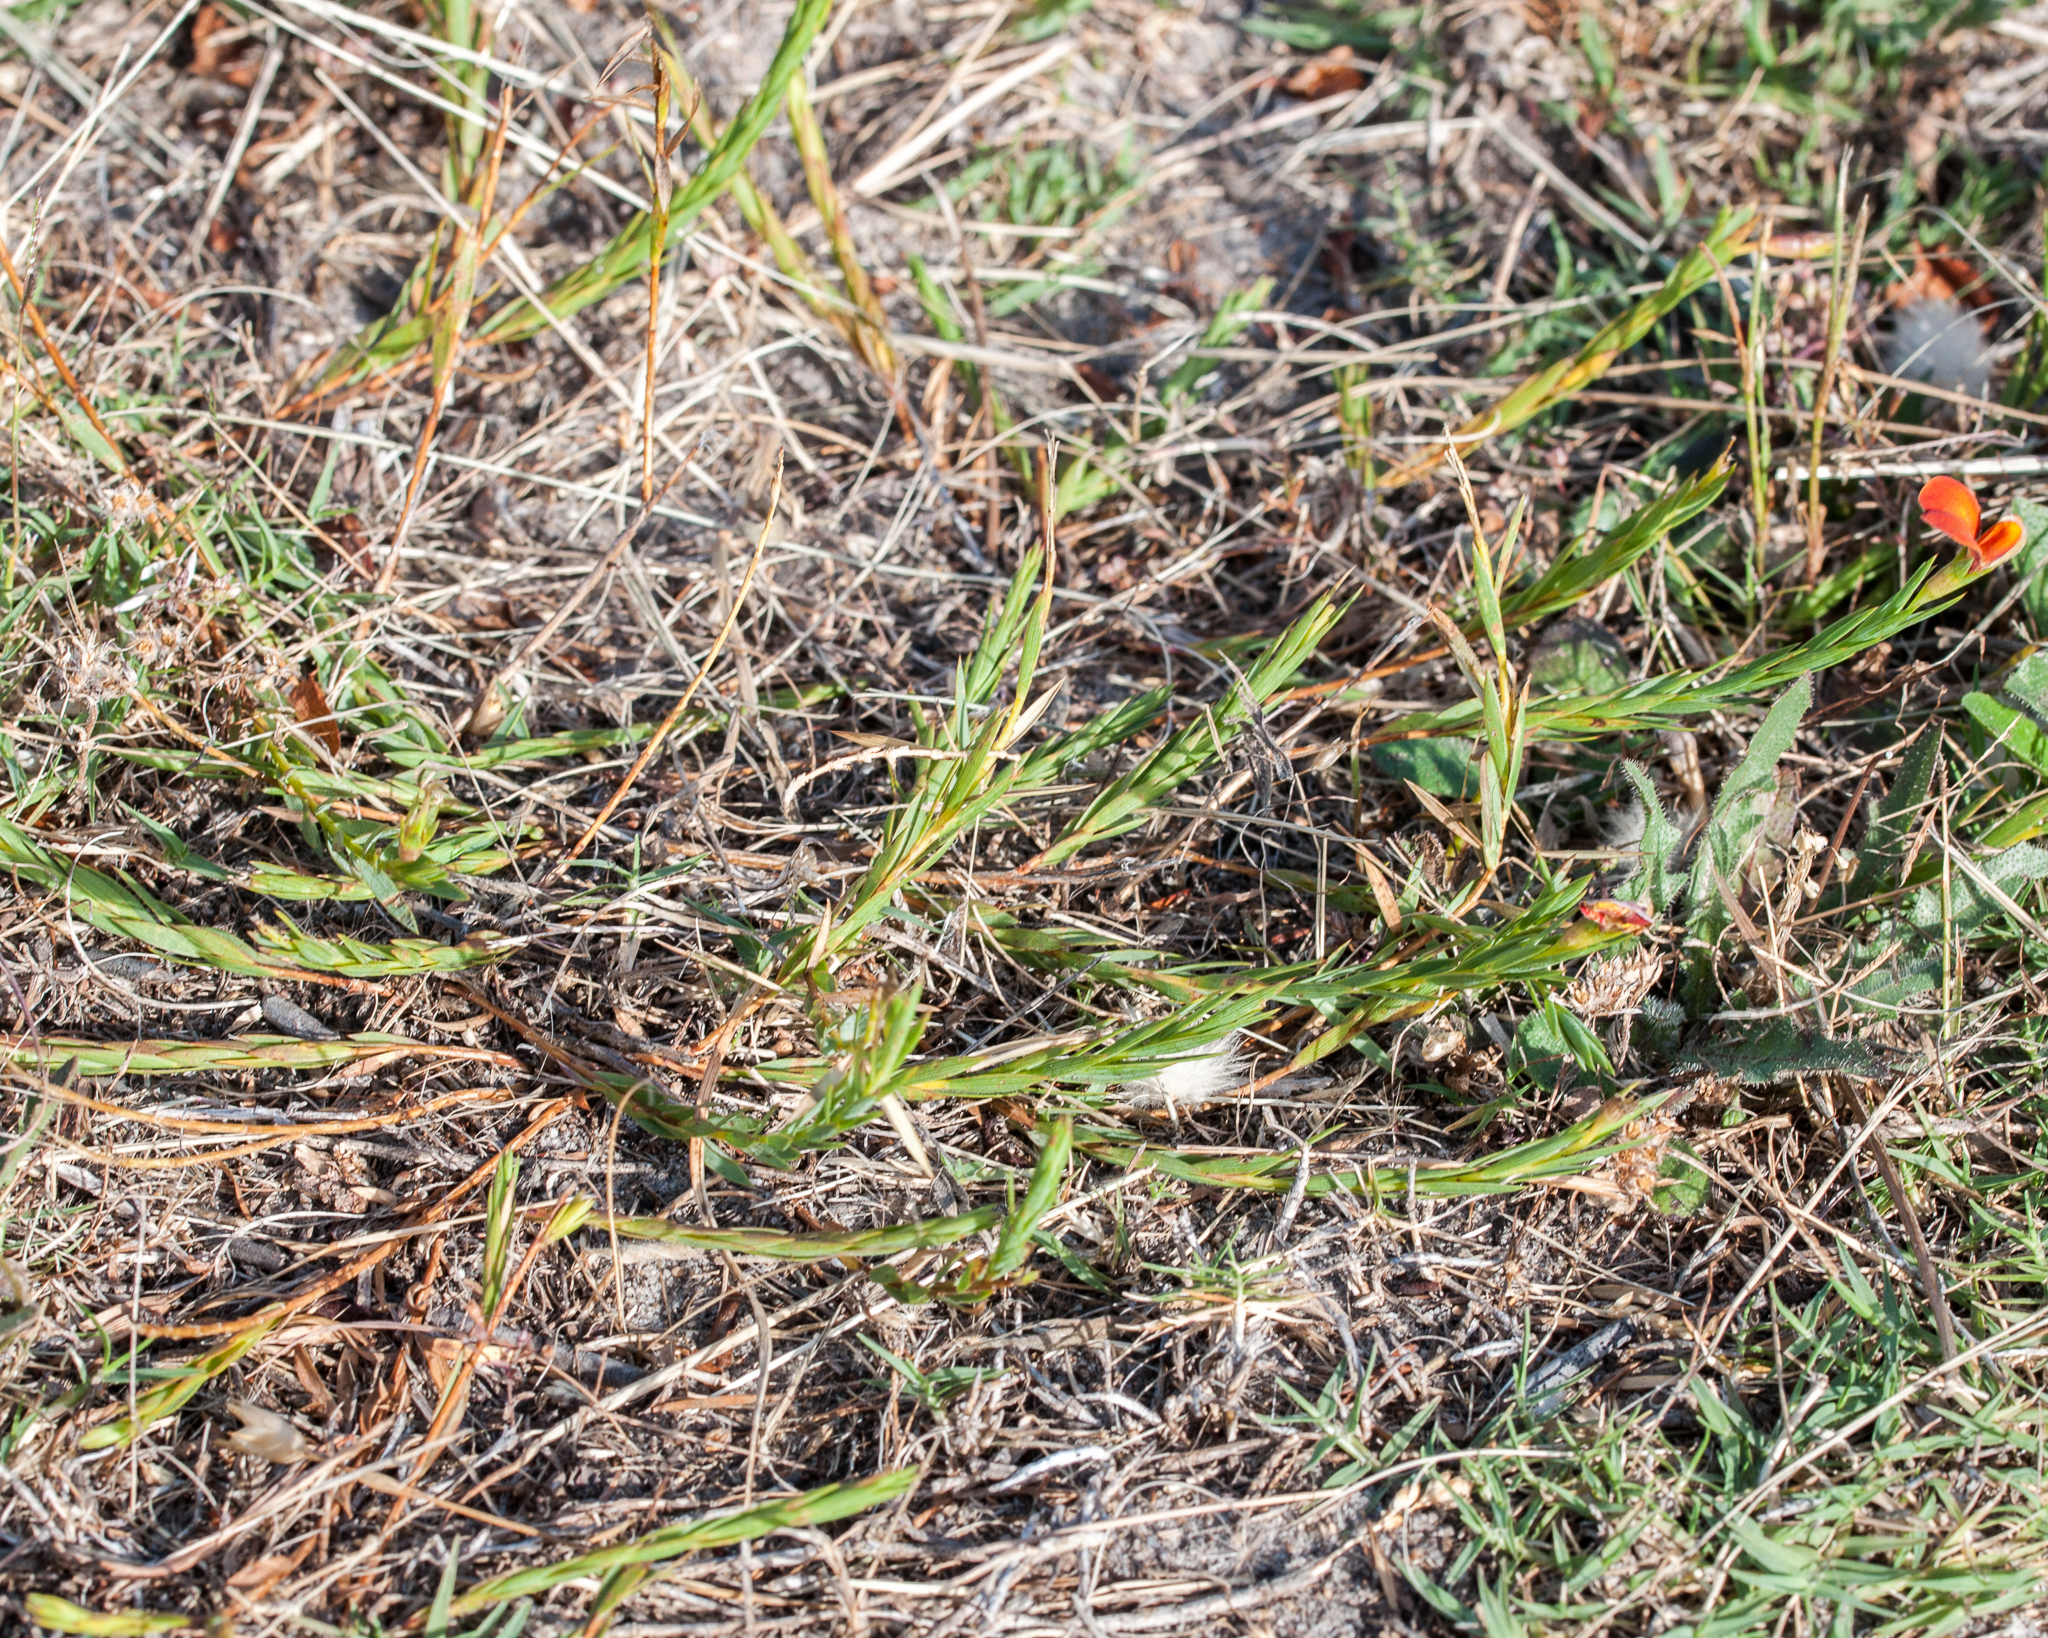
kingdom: Plantae
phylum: Tracheophyta
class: Magnoliopsida
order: Fabales
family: Fabaceae
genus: Aspalathus
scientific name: Aspalathus angustifolia
